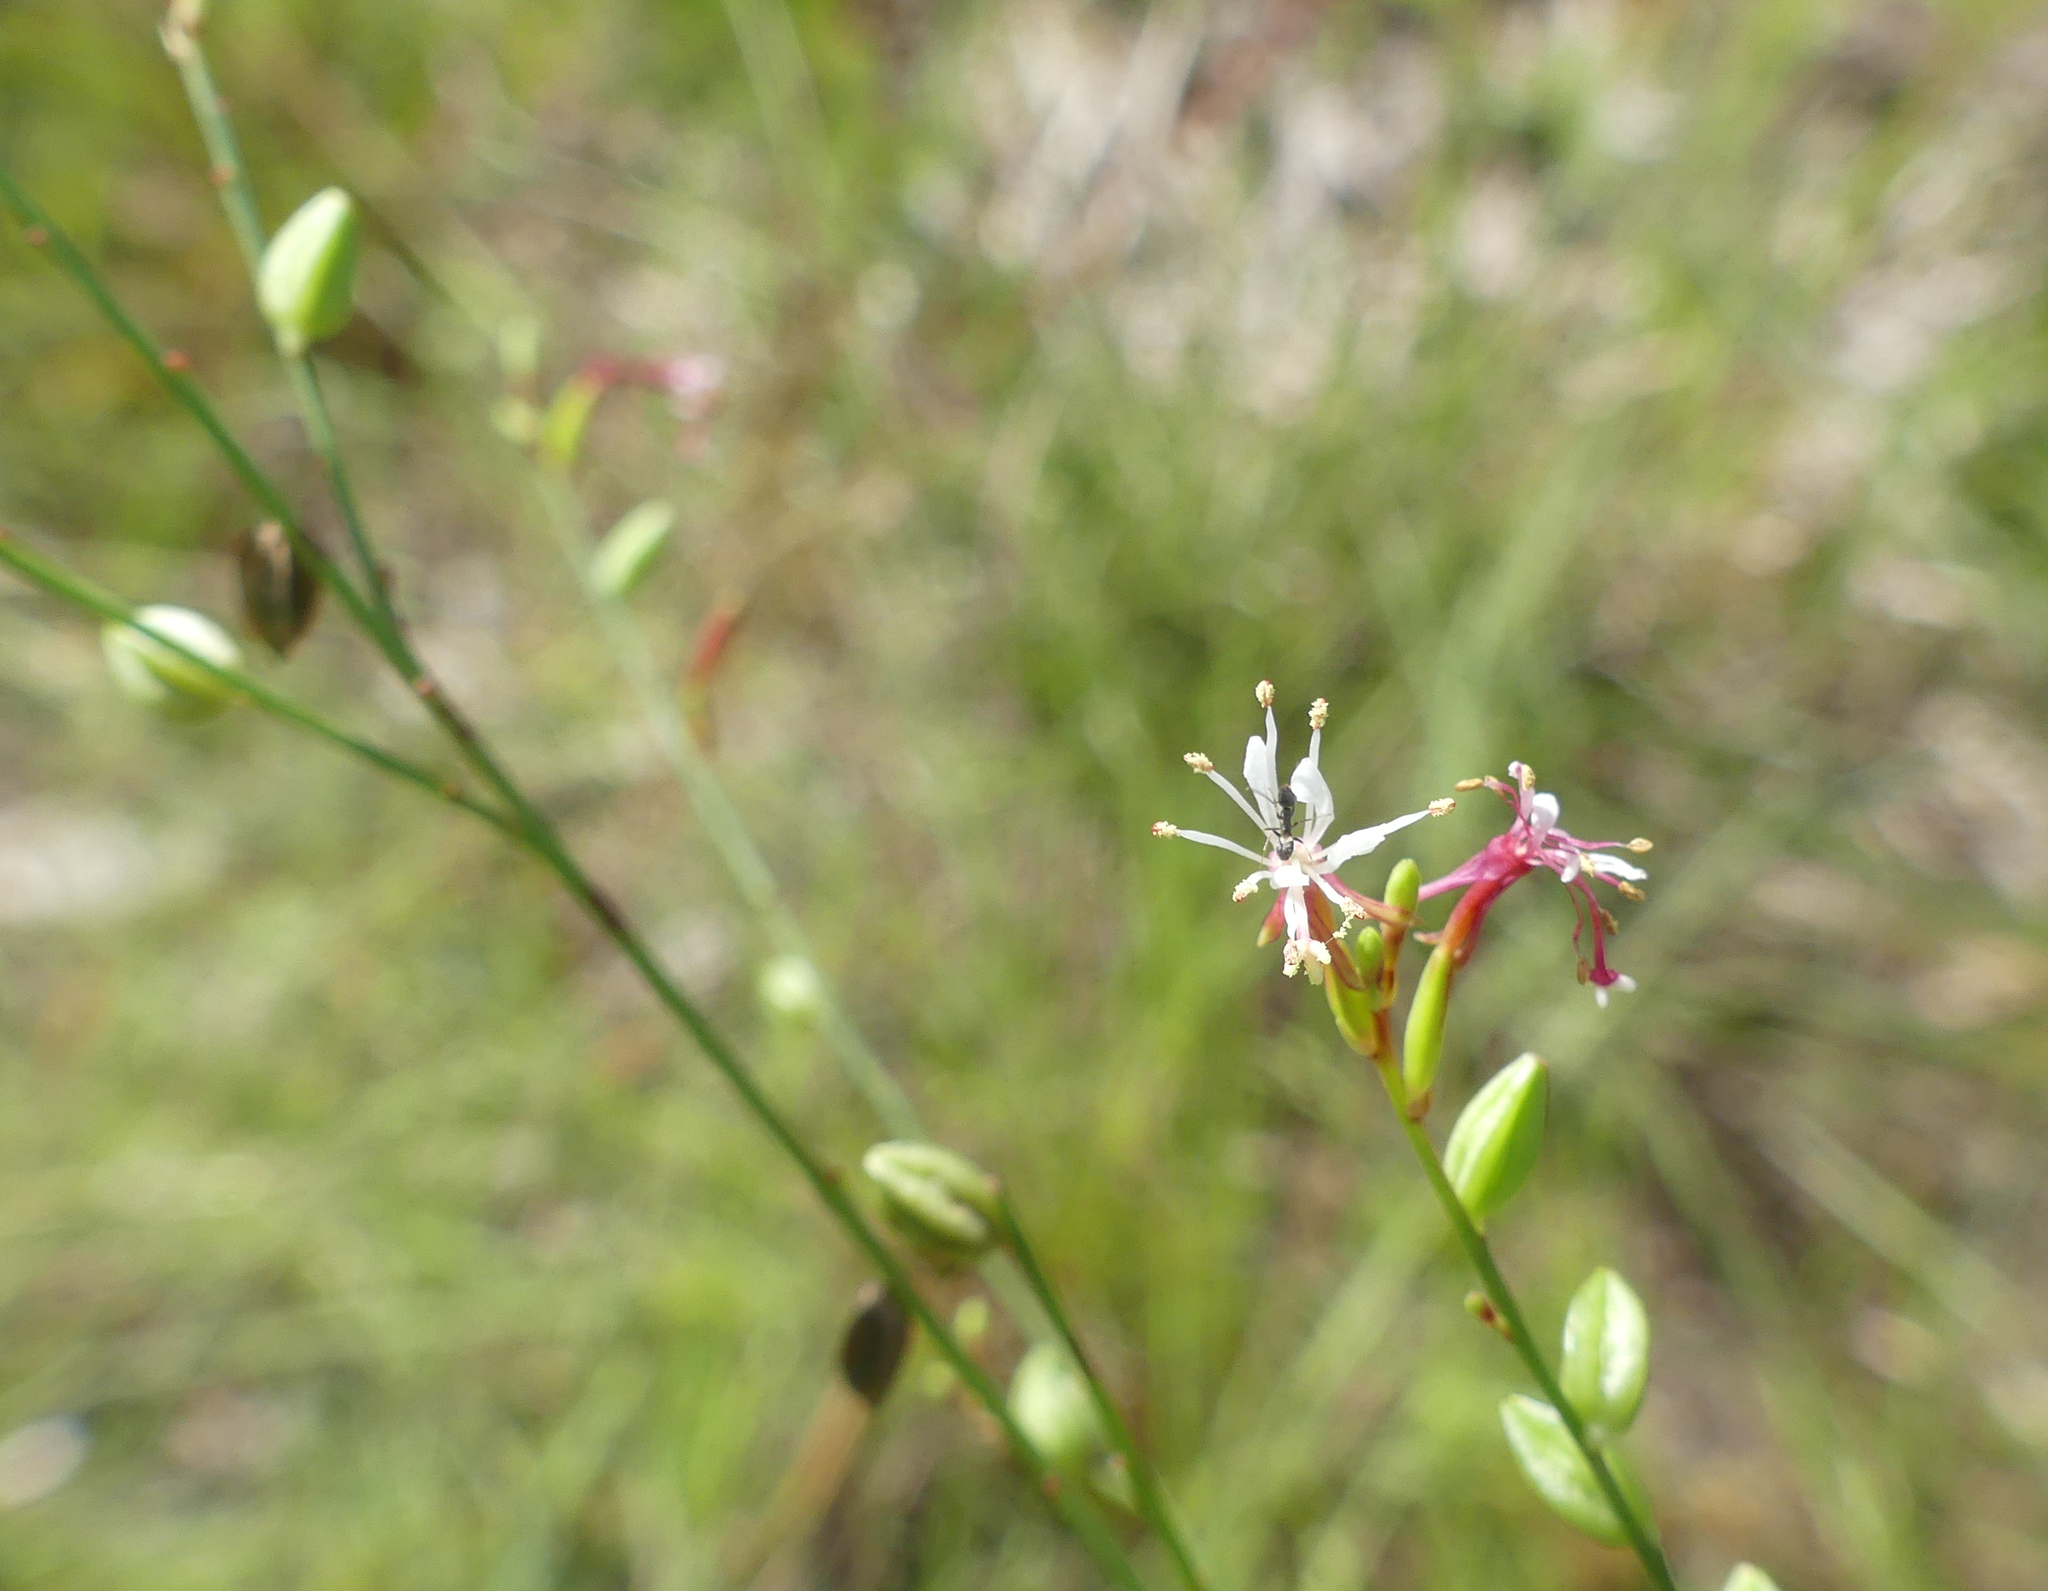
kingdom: Plantae
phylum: Tracheophyta
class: Magnoliopsida
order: Myrtales
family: Onagraceae
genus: Oenothera
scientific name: Oenothera simulans
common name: Southern beeblossom
